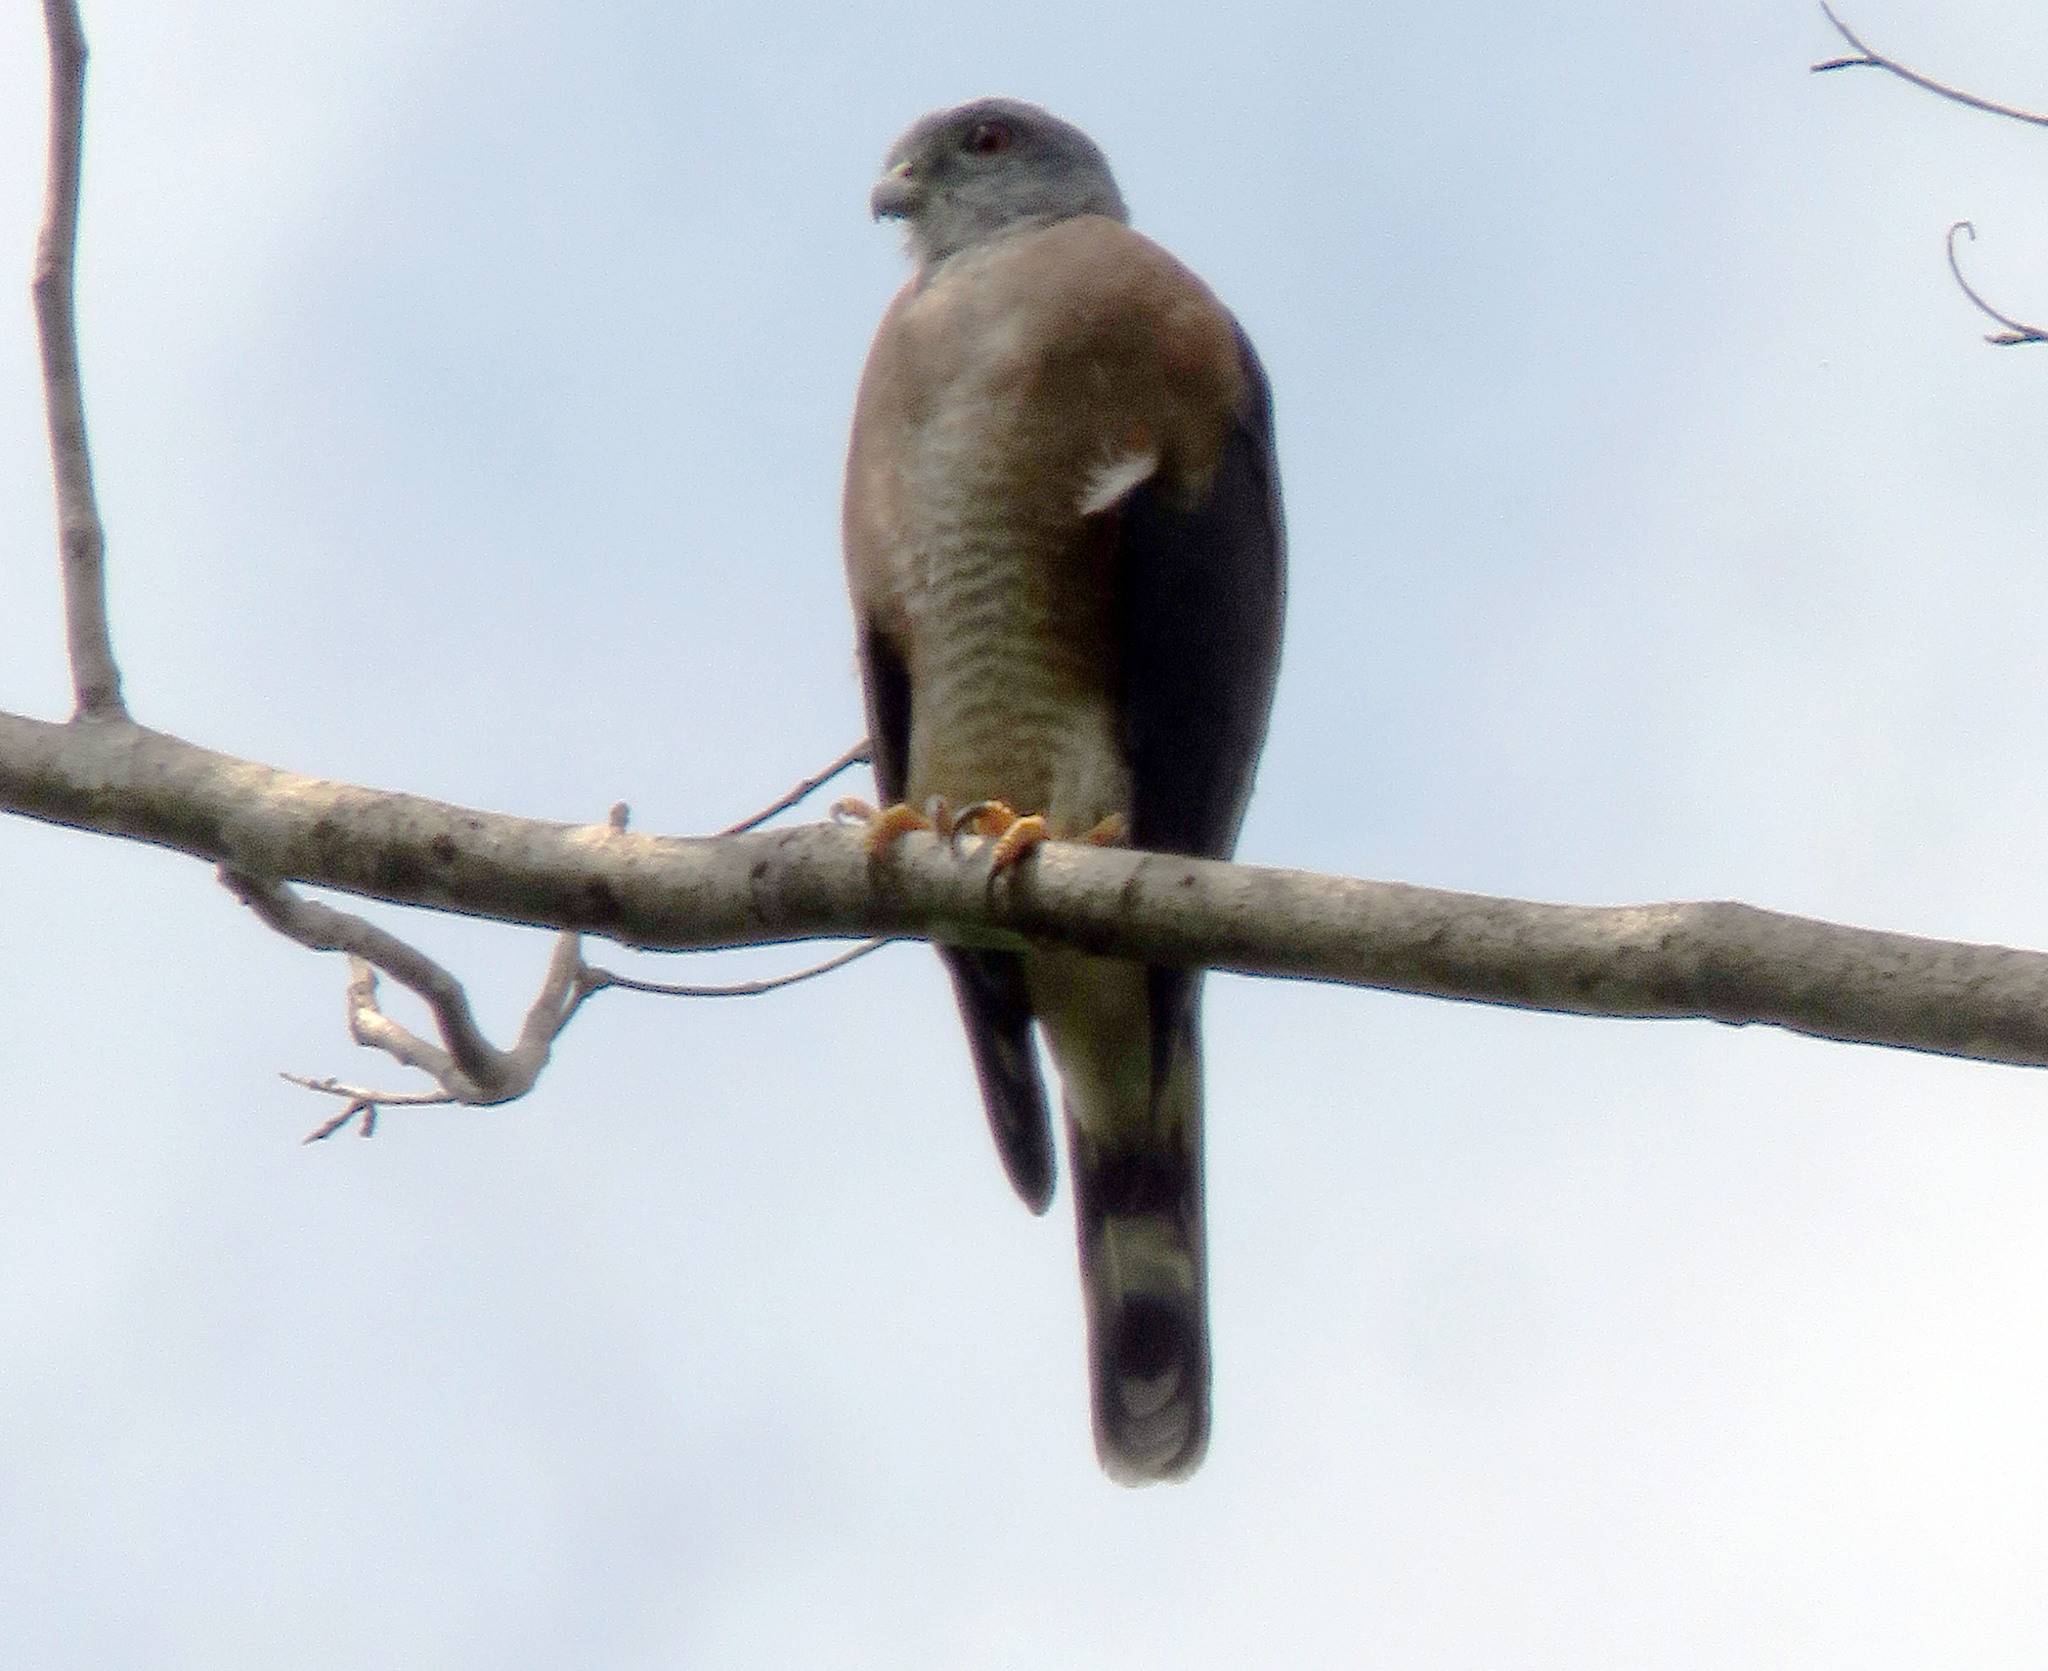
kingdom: Animalia
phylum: Chordata
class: Aves
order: Accipitriformes
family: Accipitridae
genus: Harpagus
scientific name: Harpagus bidentatus
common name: Double-toothed kite
